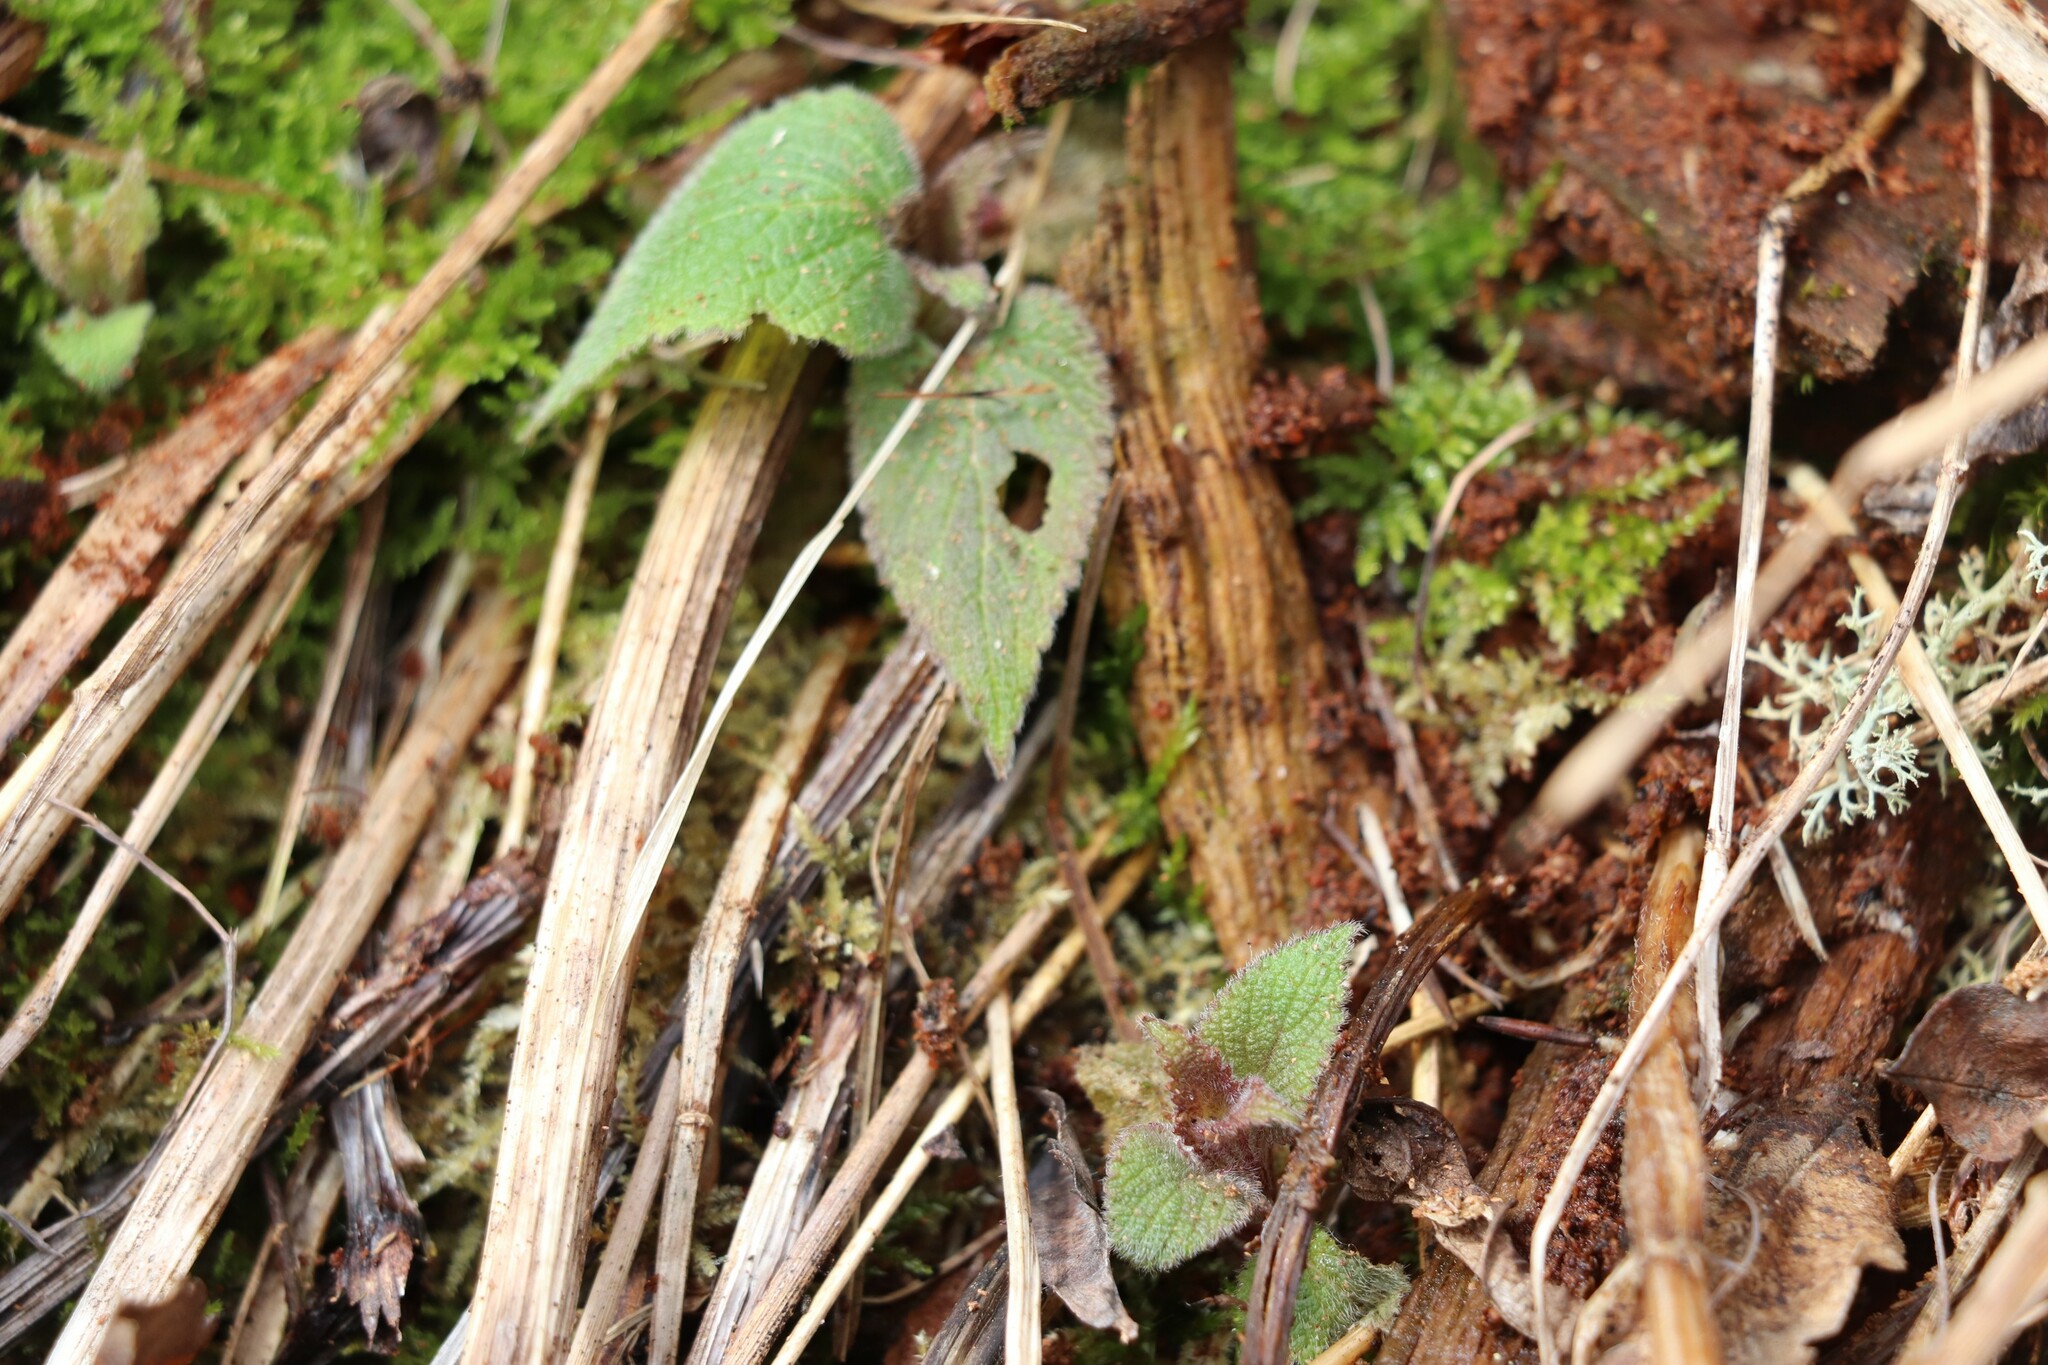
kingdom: Plantae
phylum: Tracheophyta
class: Magnoliopsida
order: Lamiales
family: Lamiaceae
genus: Lamium
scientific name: Lamium album
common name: White dead-nettle
